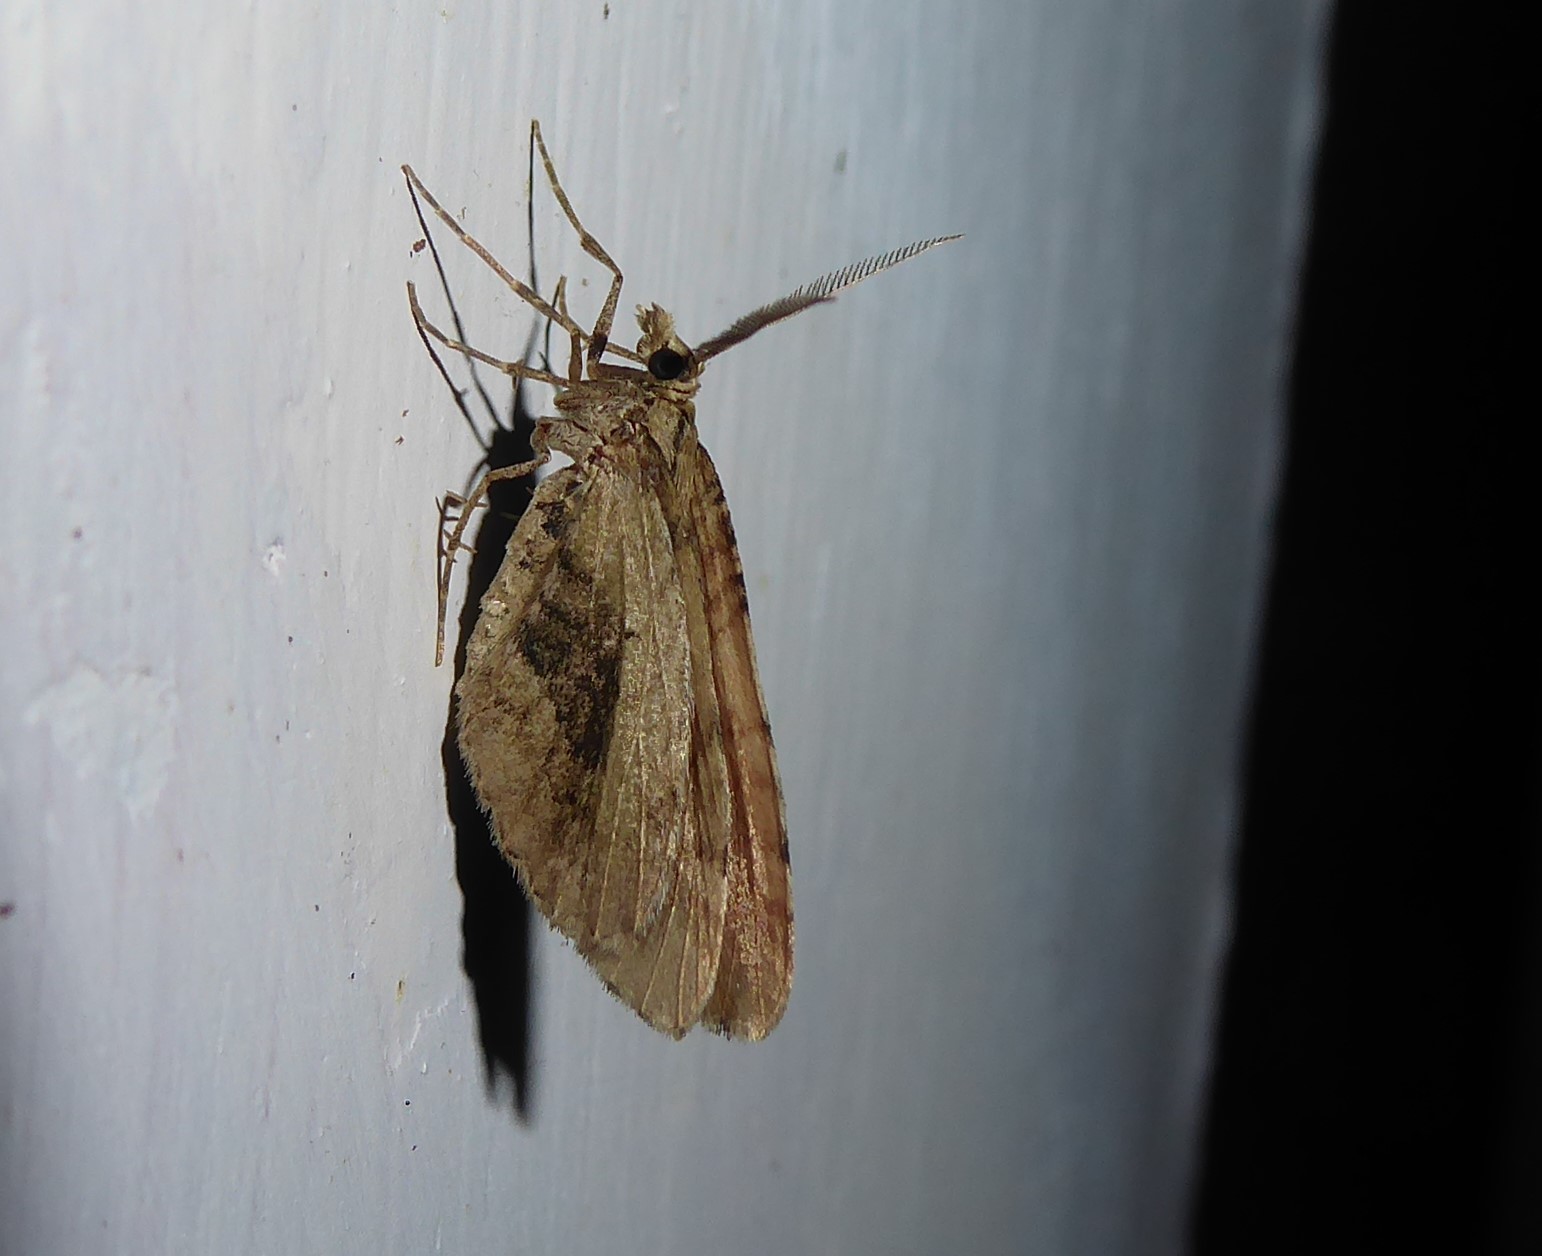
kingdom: Animalia
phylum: Arthropoda
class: Insecta
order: Lepidoptera
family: Geometridae
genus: Asaphodes
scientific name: Asaphodes aegrota
